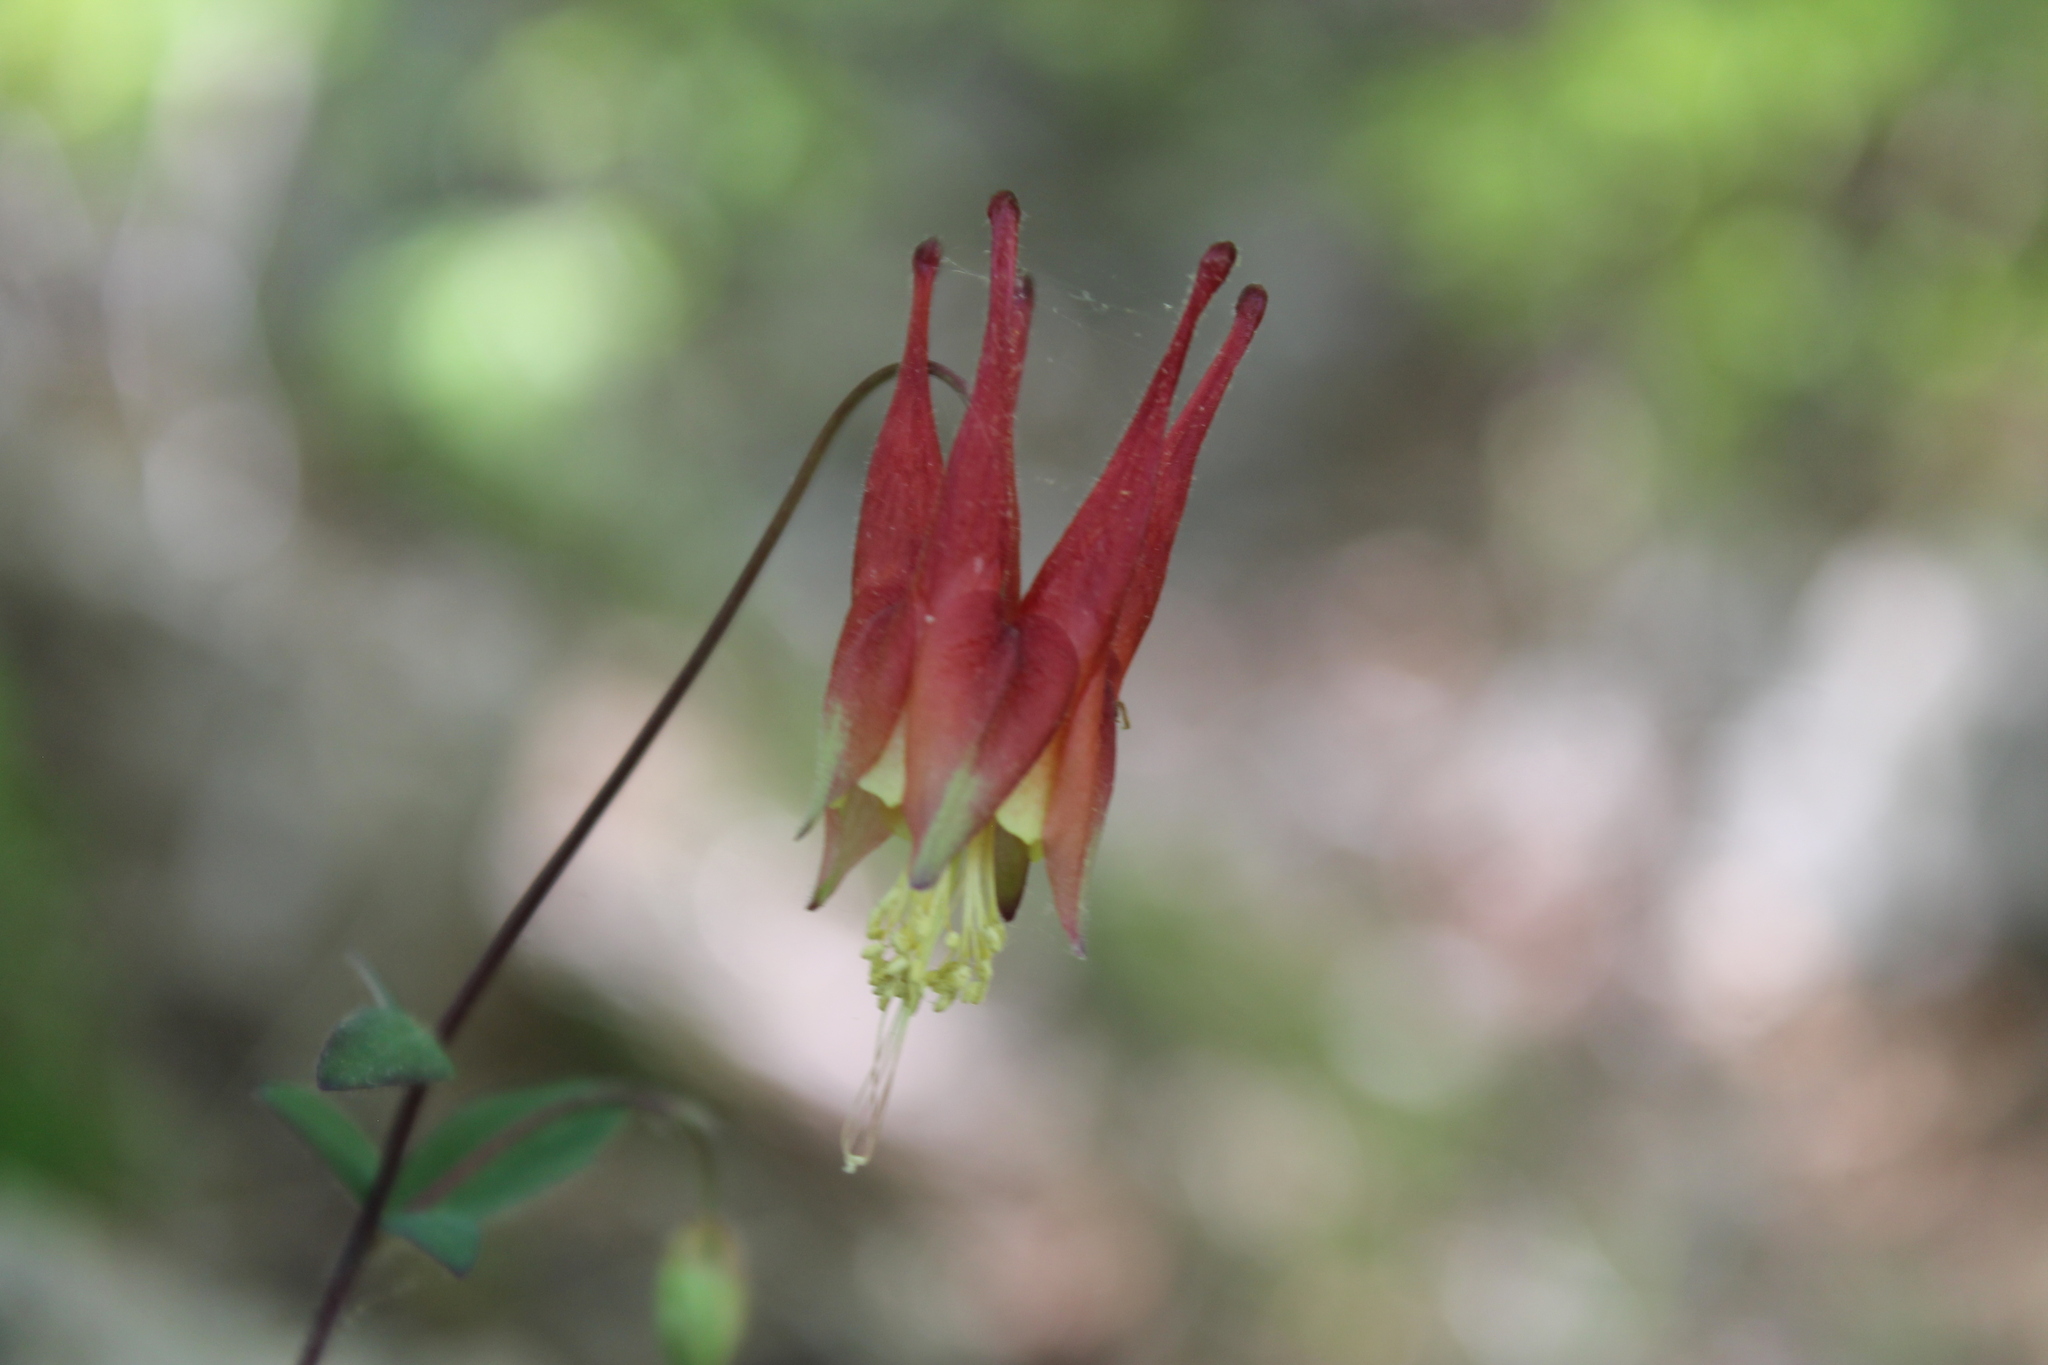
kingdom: Plantae
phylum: Tracheophyta
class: Magnoliopsida
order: Ranunculales
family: Ranunculaceae
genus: Aquilegia
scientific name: Aquilegia canadensis
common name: American columbine
